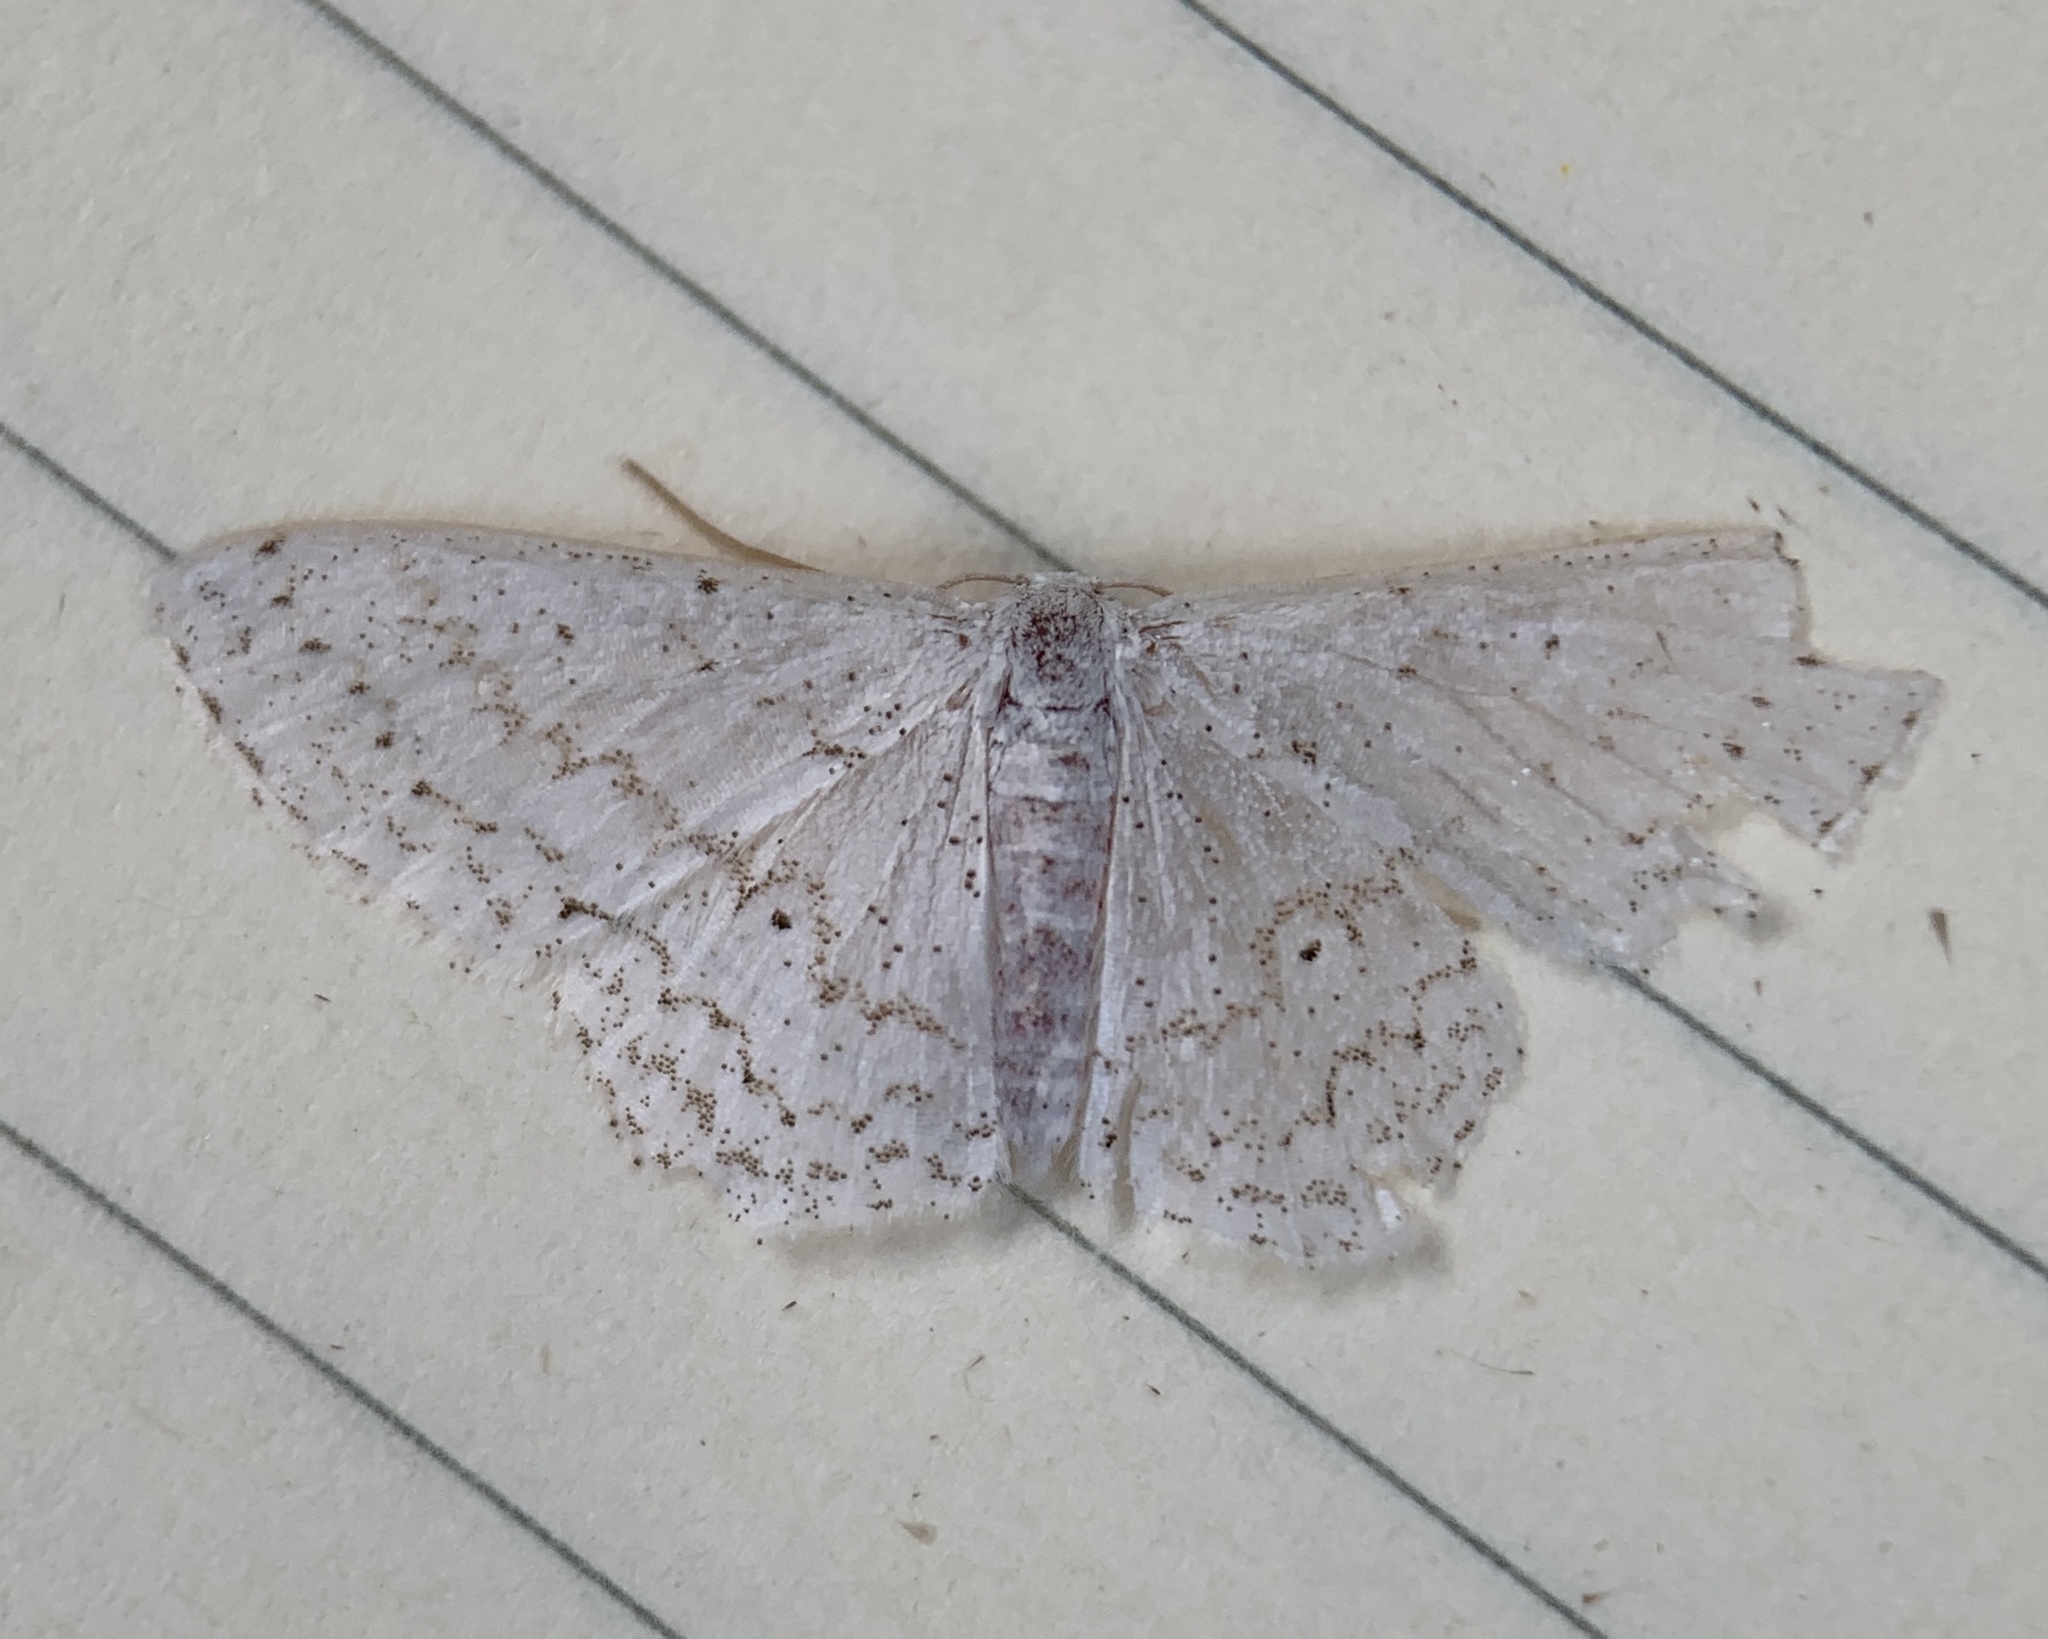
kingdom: Animalia
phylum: Arthropoda
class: Insecta
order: Lepidoptera
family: Geometridae
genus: Idaea
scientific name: Idaea tacturata
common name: Dot-lined wave
